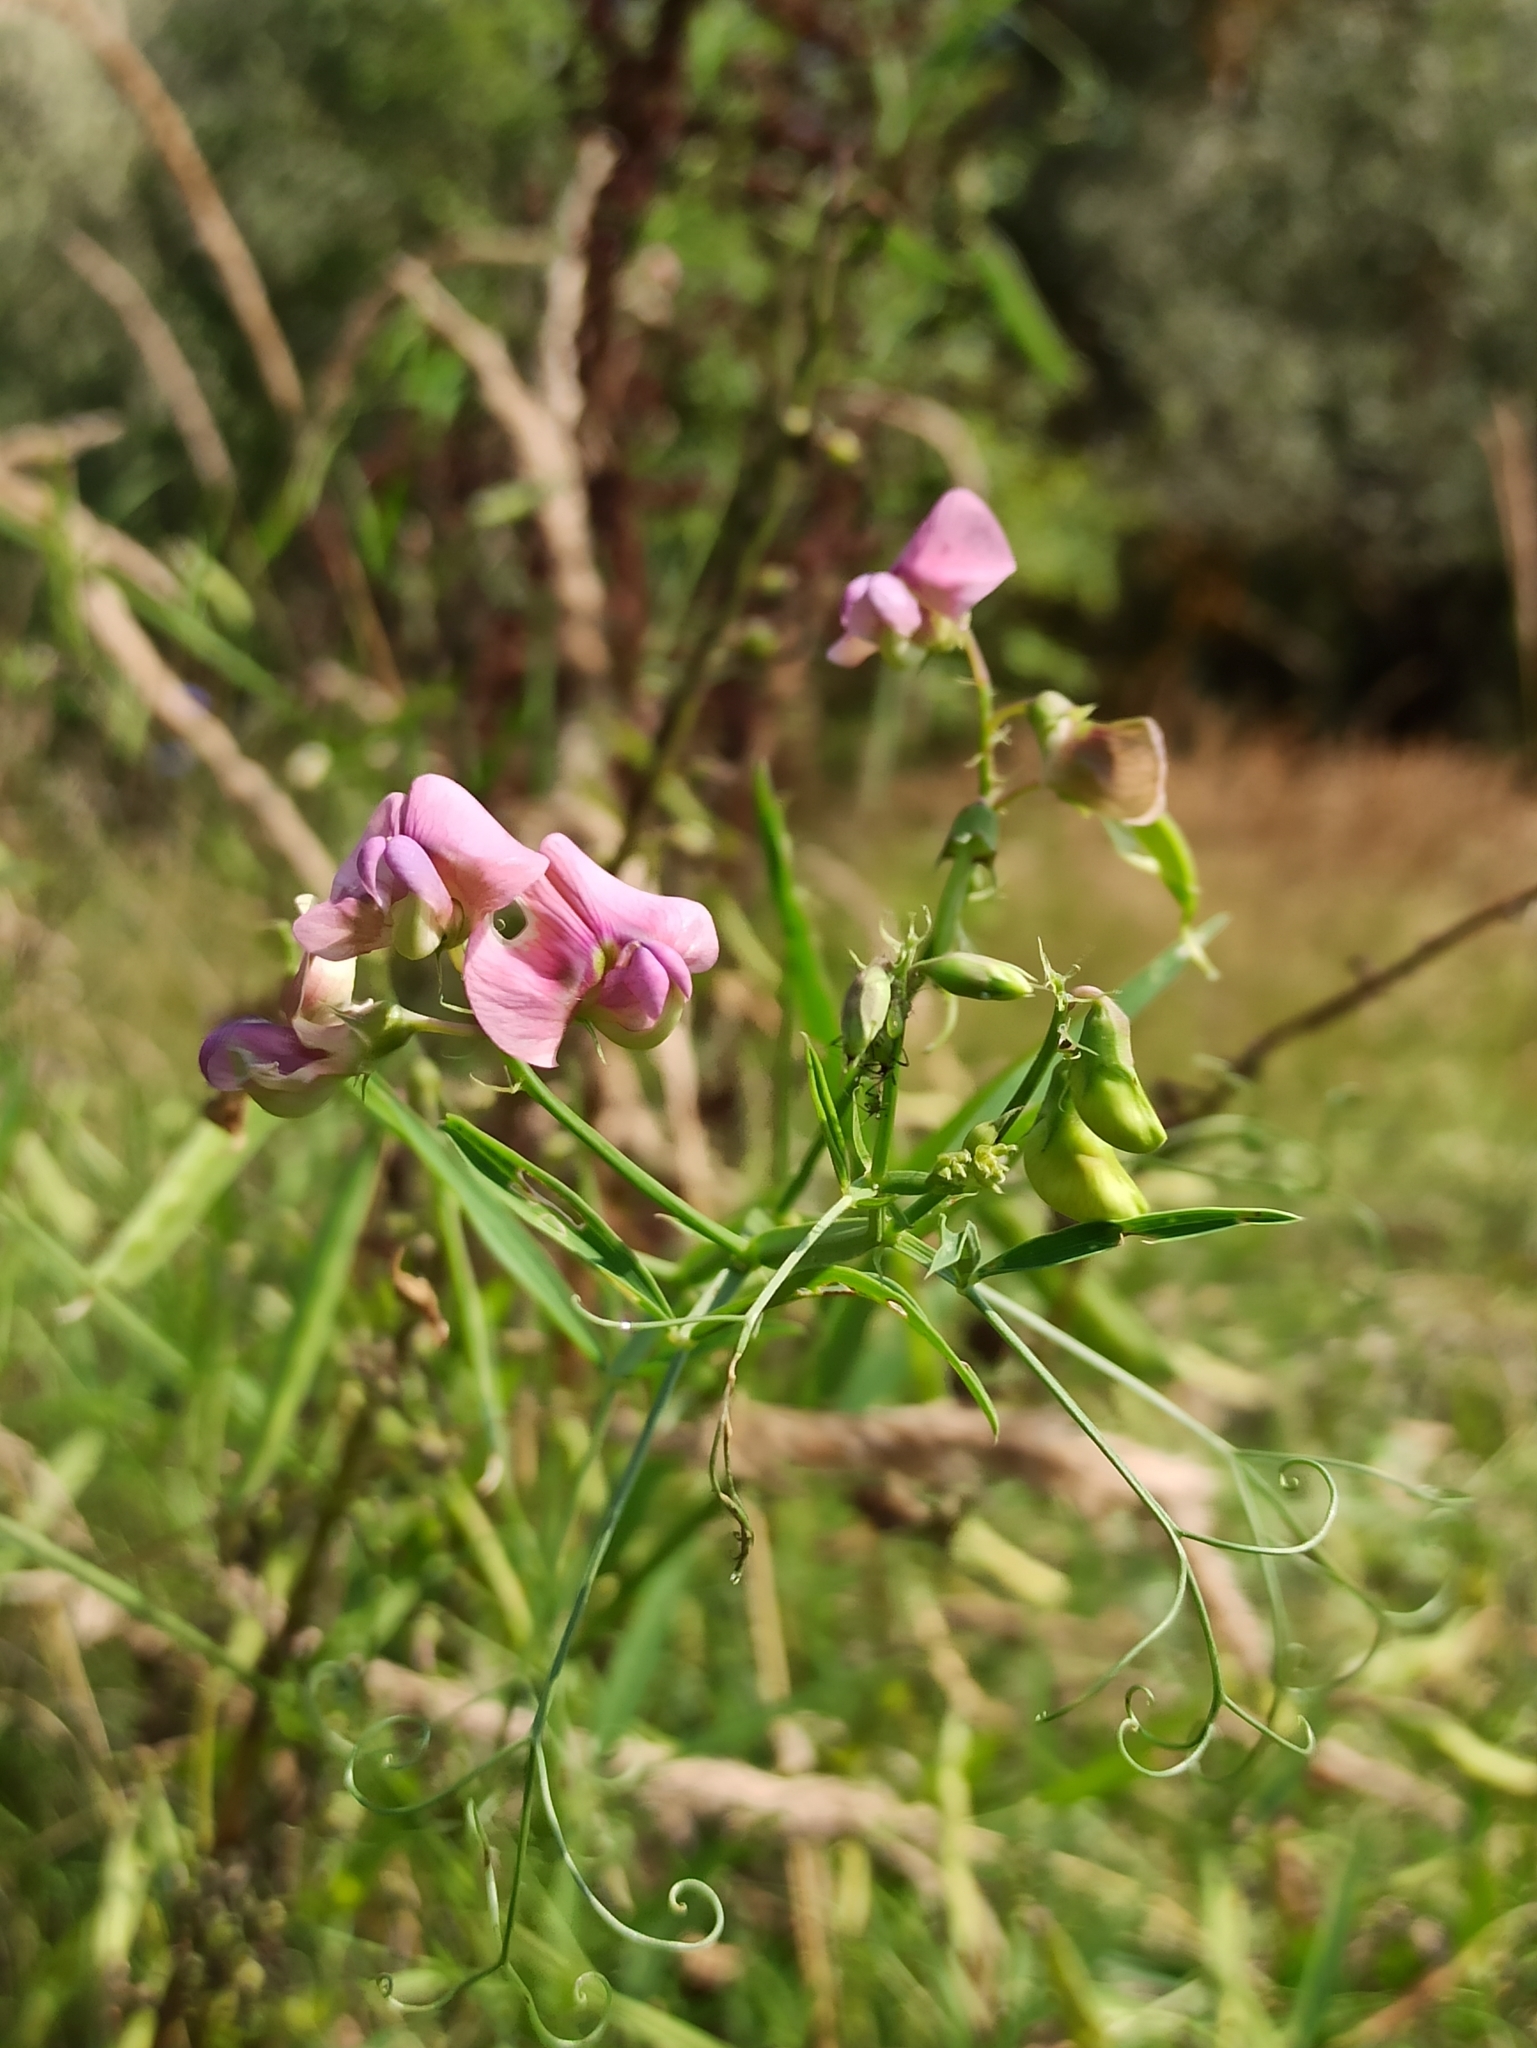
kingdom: Plantae
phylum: Tracheophyta
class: Magnoliopsida
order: Fabales
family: Fabaceae
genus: Lathyrus
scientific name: Lathyrus sylvestris
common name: Flat pea
